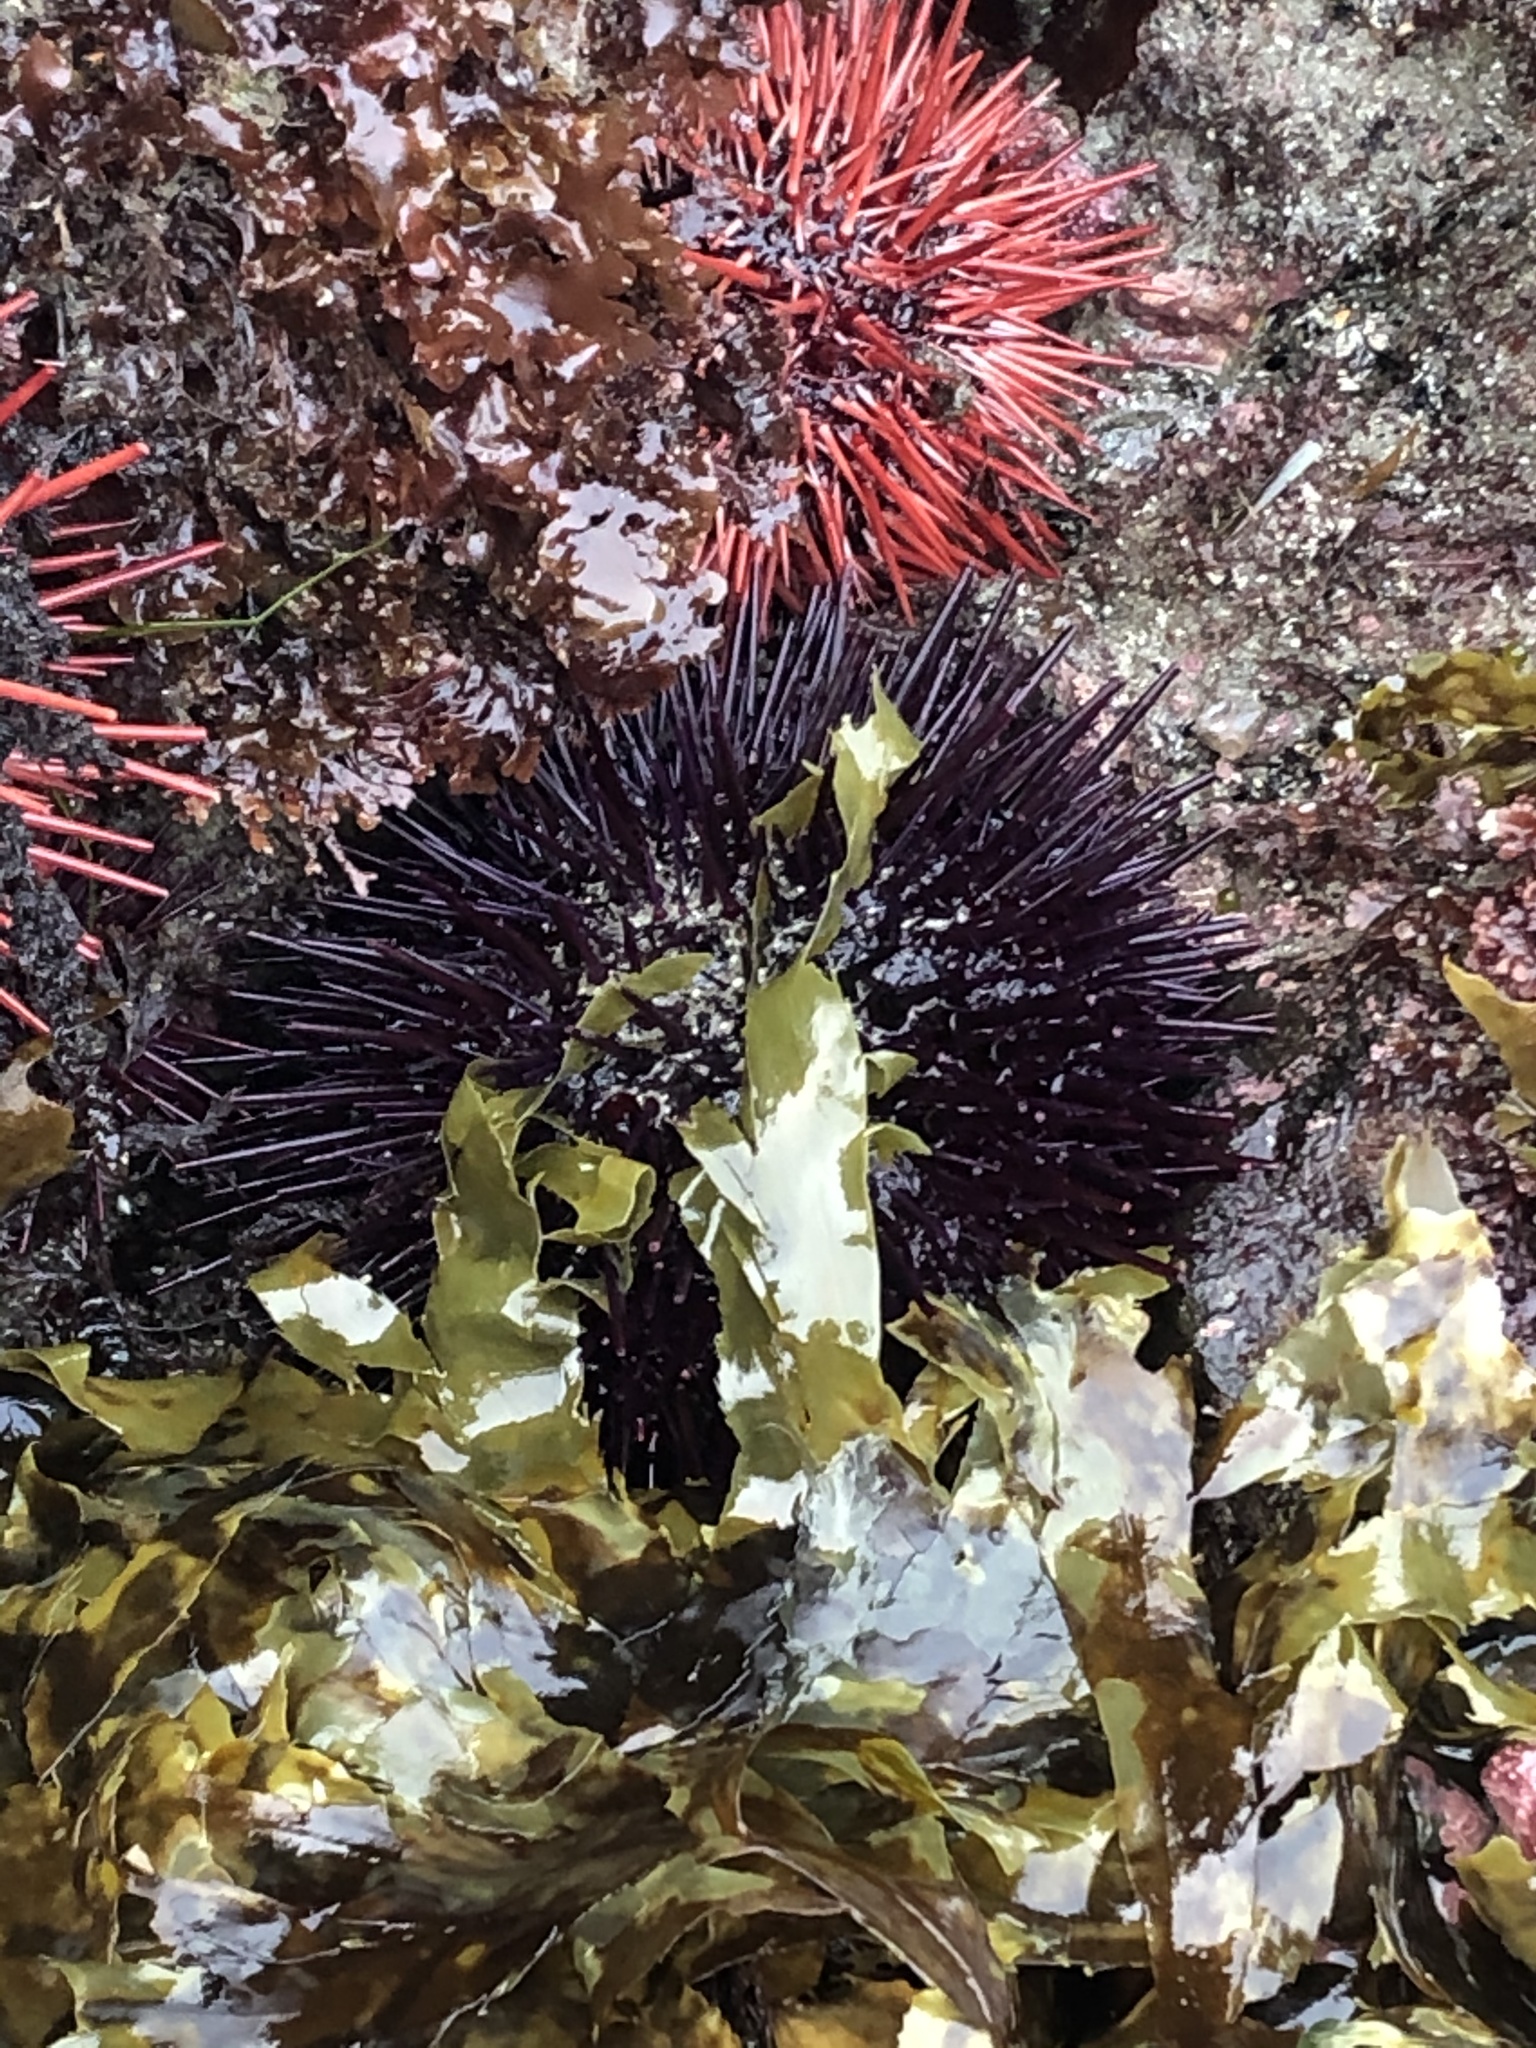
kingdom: Animalia
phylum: Echinodermata
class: Echinoidea
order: Camarodonta
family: Strongylocentrotidae
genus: Mesocentrotus
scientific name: Mesocentrotus franciscanus
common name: Red sea urchin
